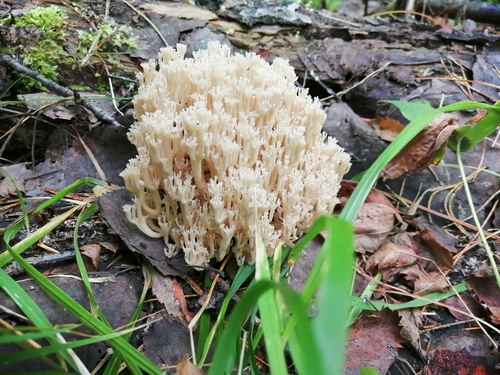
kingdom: Fungi
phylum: Basidiomycota
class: Agaricomycetes
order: Russulales
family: Auriscalpiaceae
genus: Artomyces
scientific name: Artomyces pyxidatus
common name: Crown-tipped coral fungus
